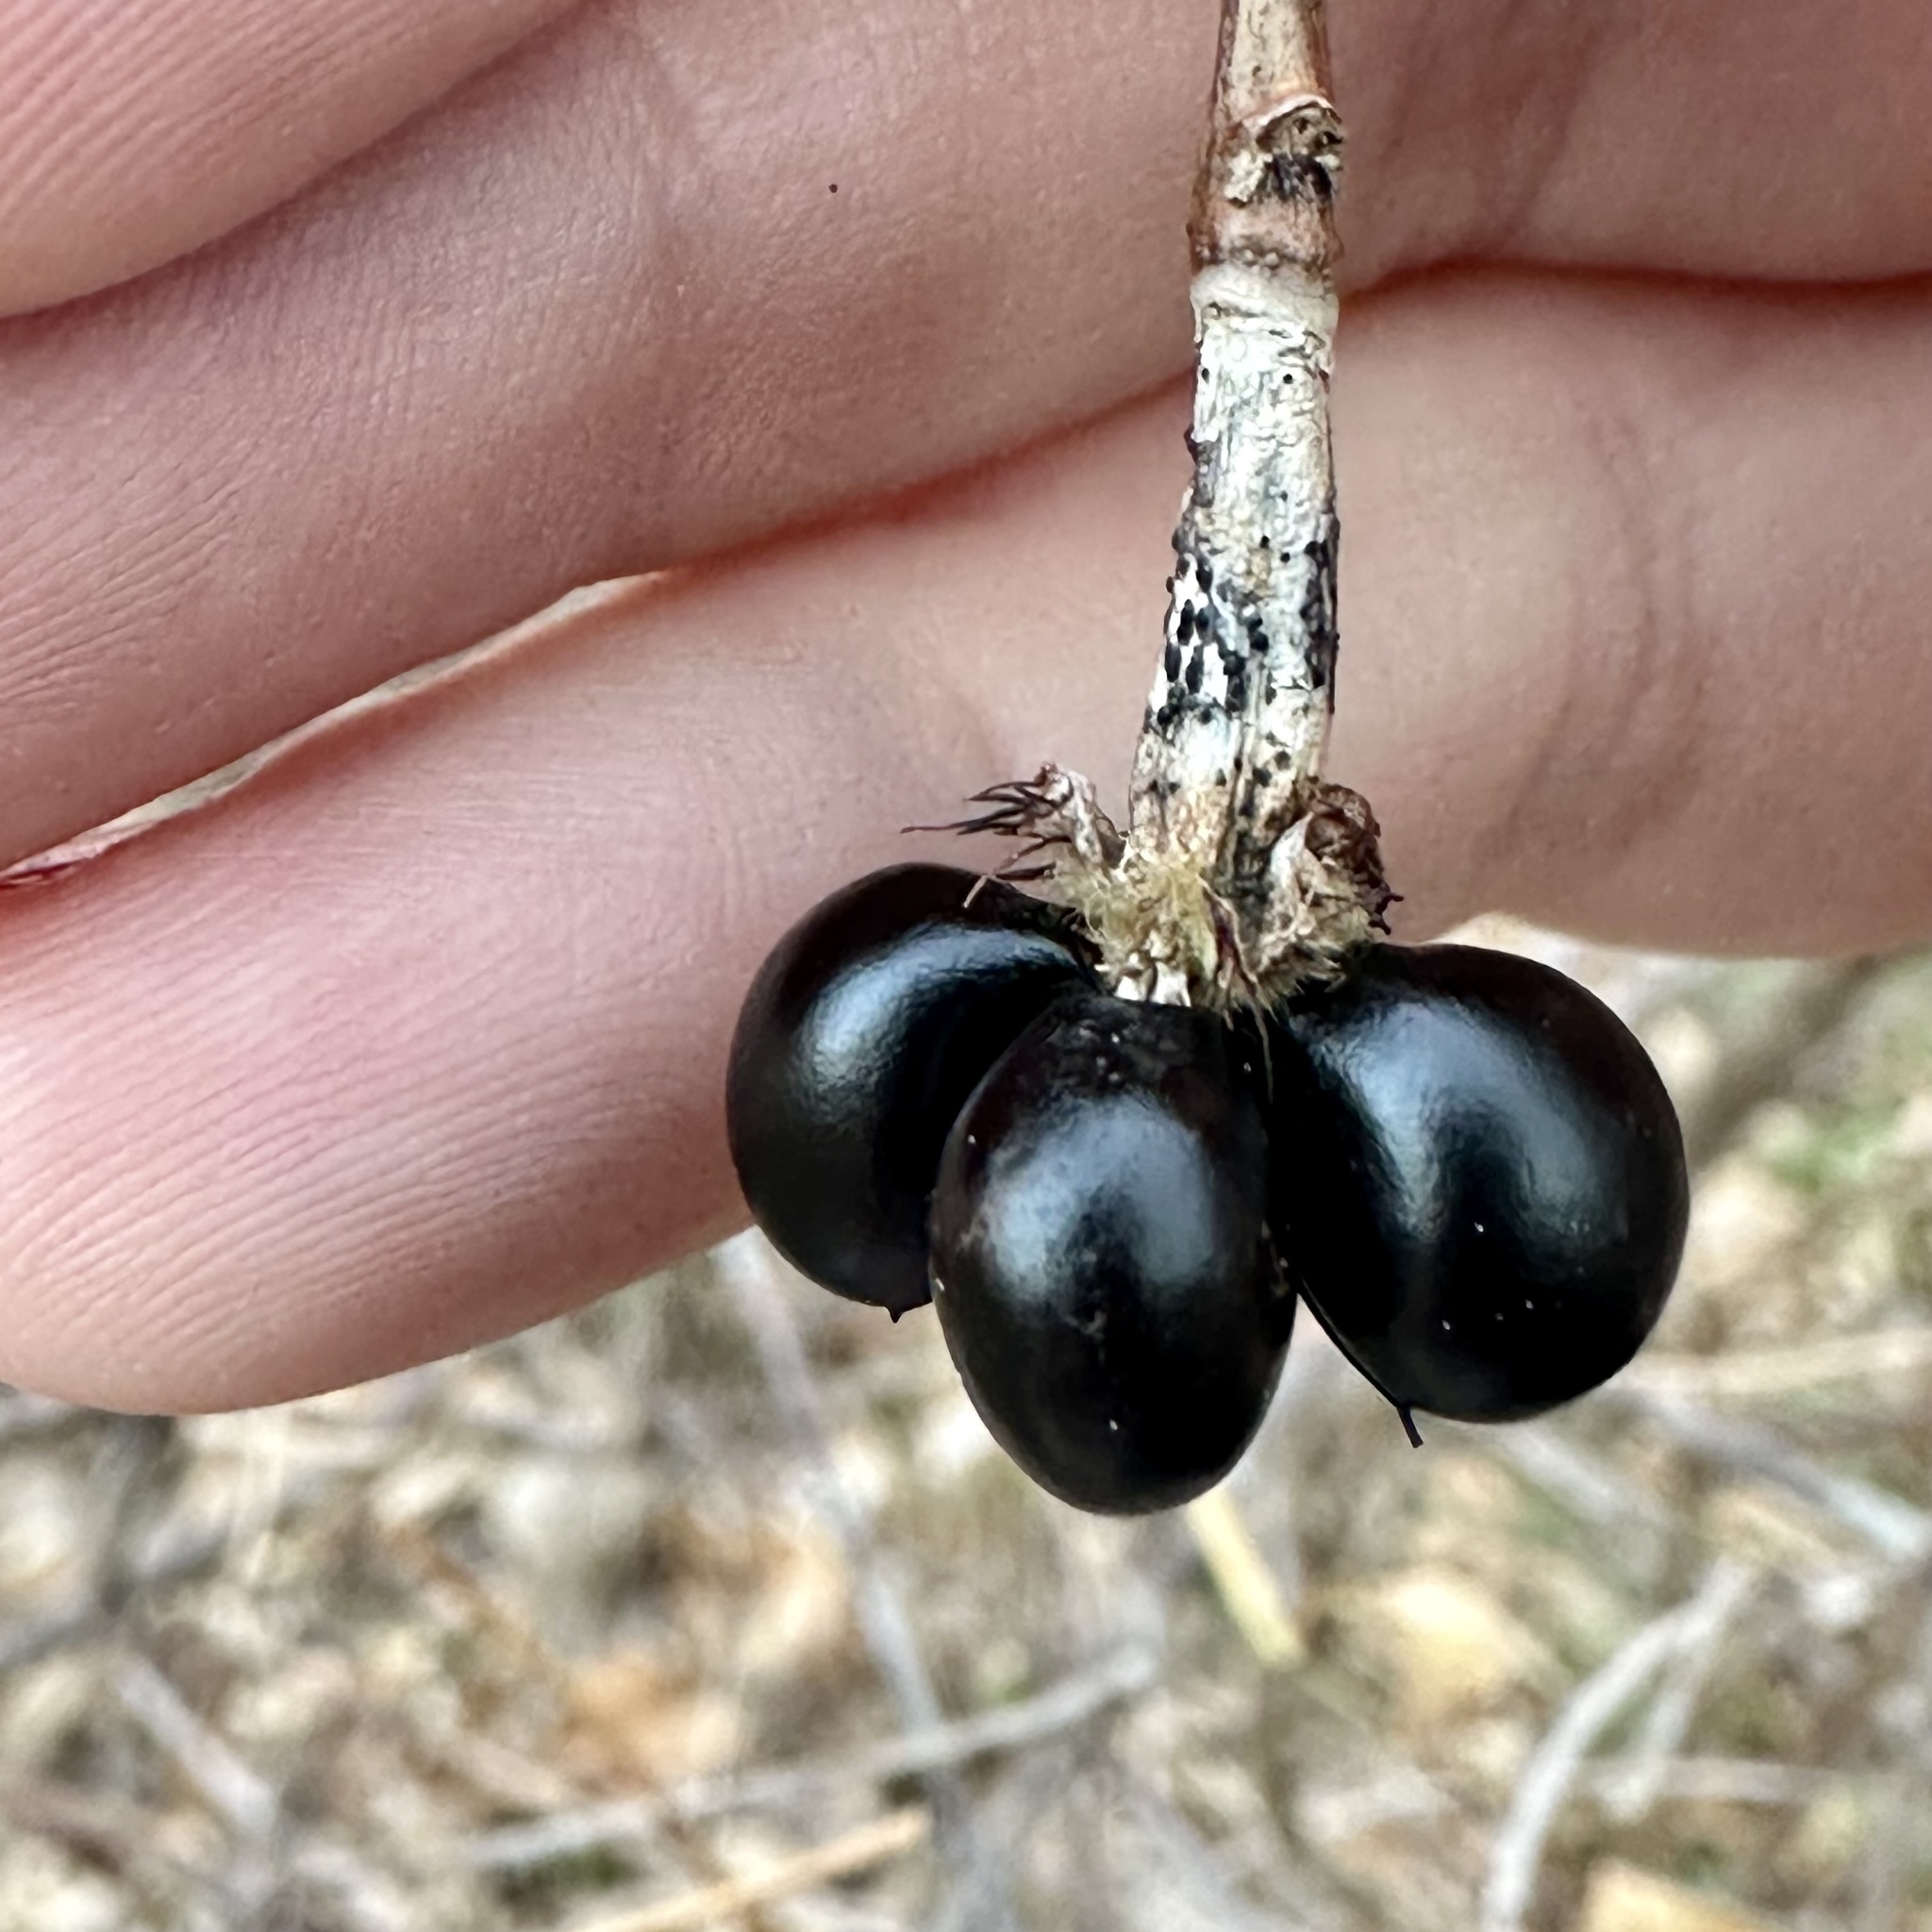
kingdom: Plantae
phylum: Tracheophyta
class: Magnoliopsida
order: Rosales
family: Rosaceae
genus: Rhodotypos
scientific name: Rhodotypos scandens
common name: Jetbead
